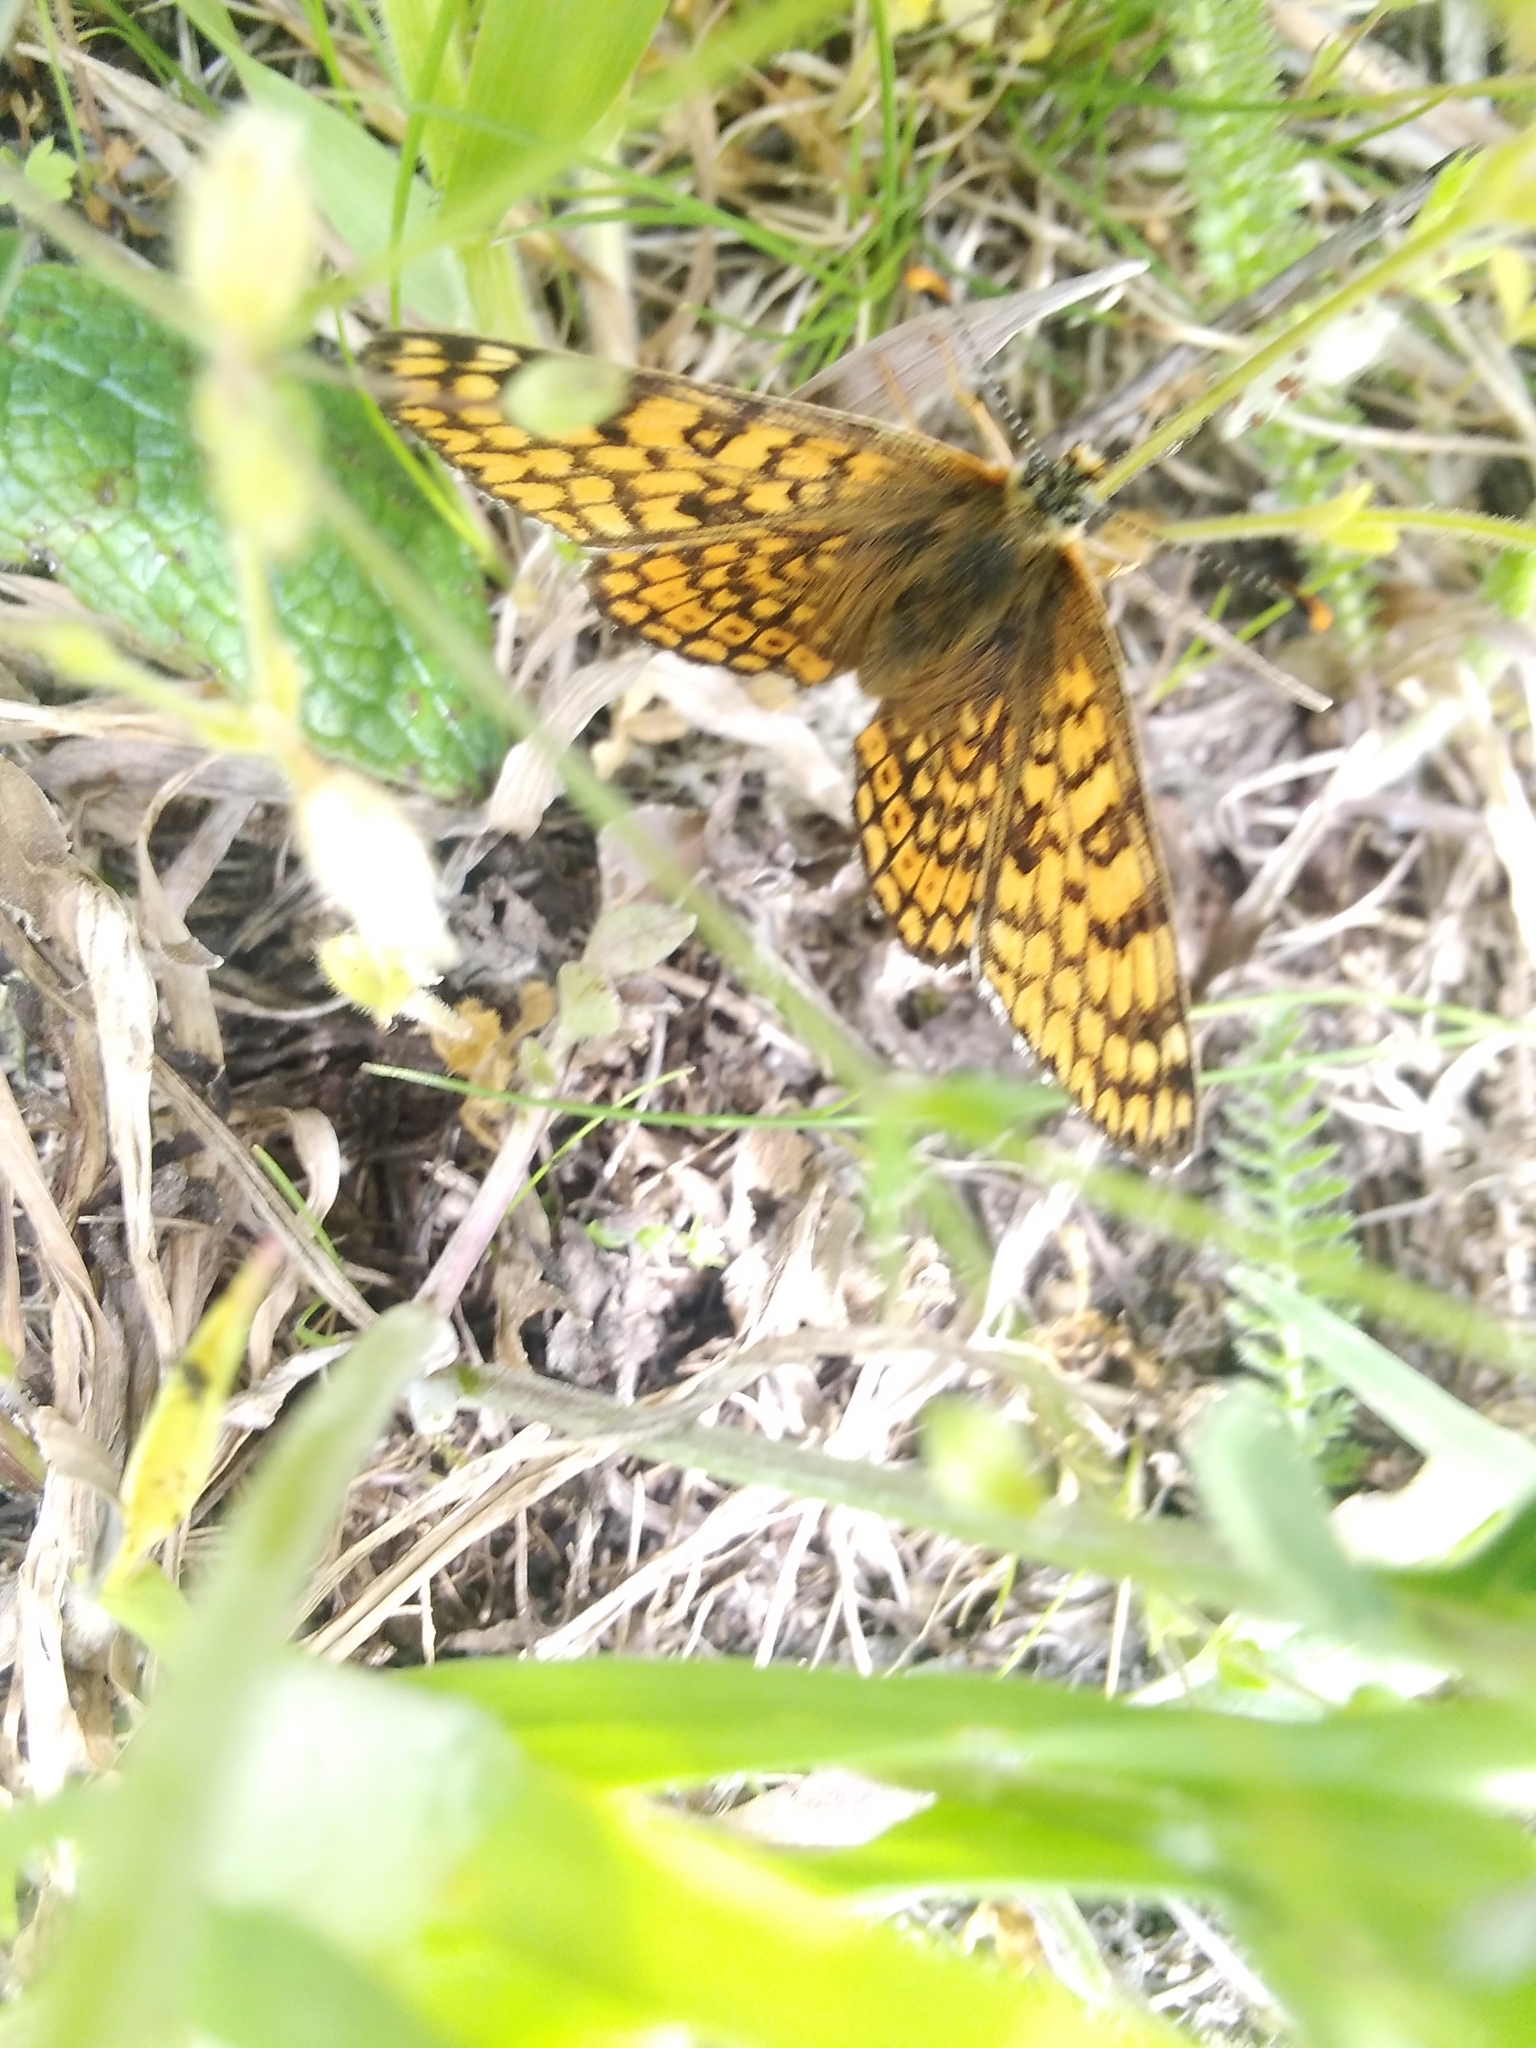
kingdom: Animalia
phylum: Arthropoda
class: Insecta
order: Lepidoptera
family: Nymphalidae
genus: Melitaea
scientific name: Melitaea cinxia
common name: Glanville fritillary
